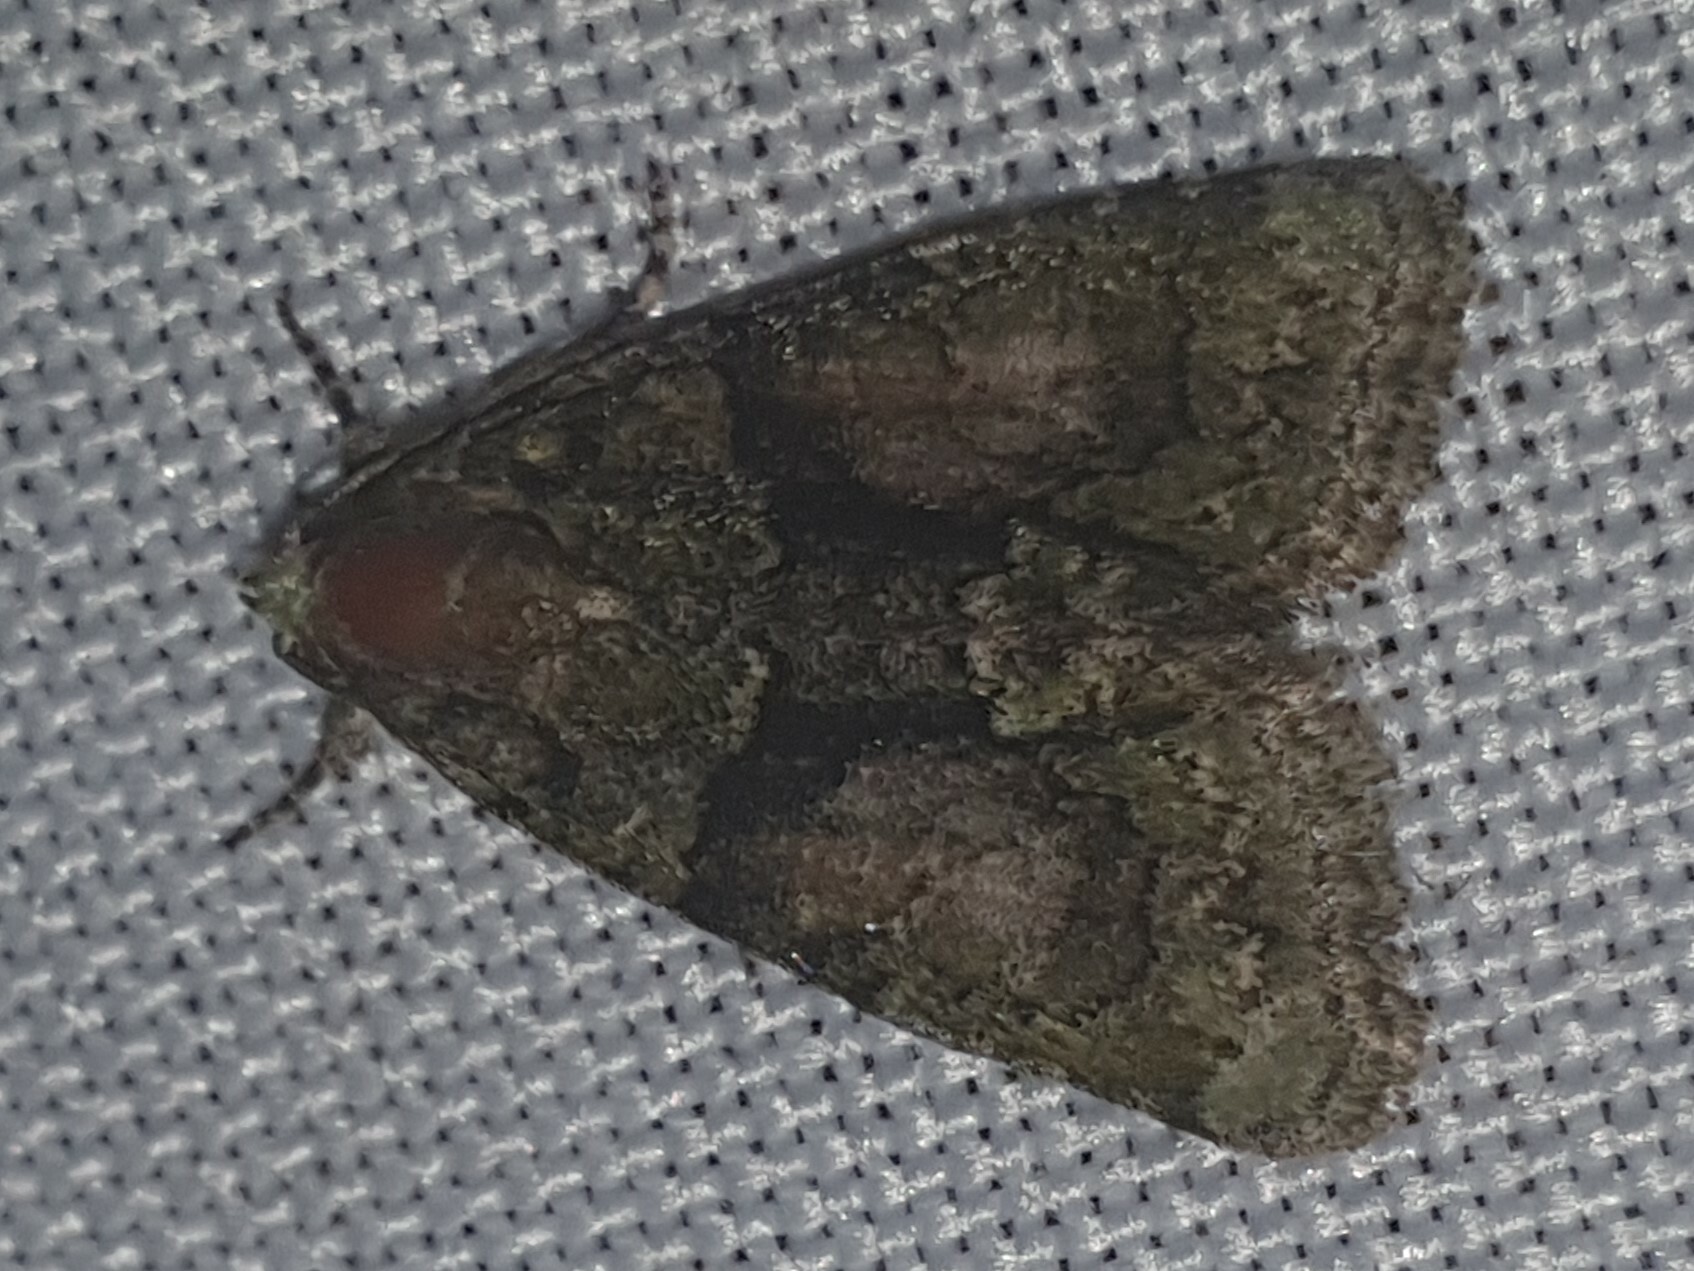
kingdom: Animalia
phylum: Arthropoda
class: Insecta
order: Lepidoptera
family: Noctuidae
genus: Cryphia
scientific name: Cryphia algae
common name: Tree-lichen beauty
